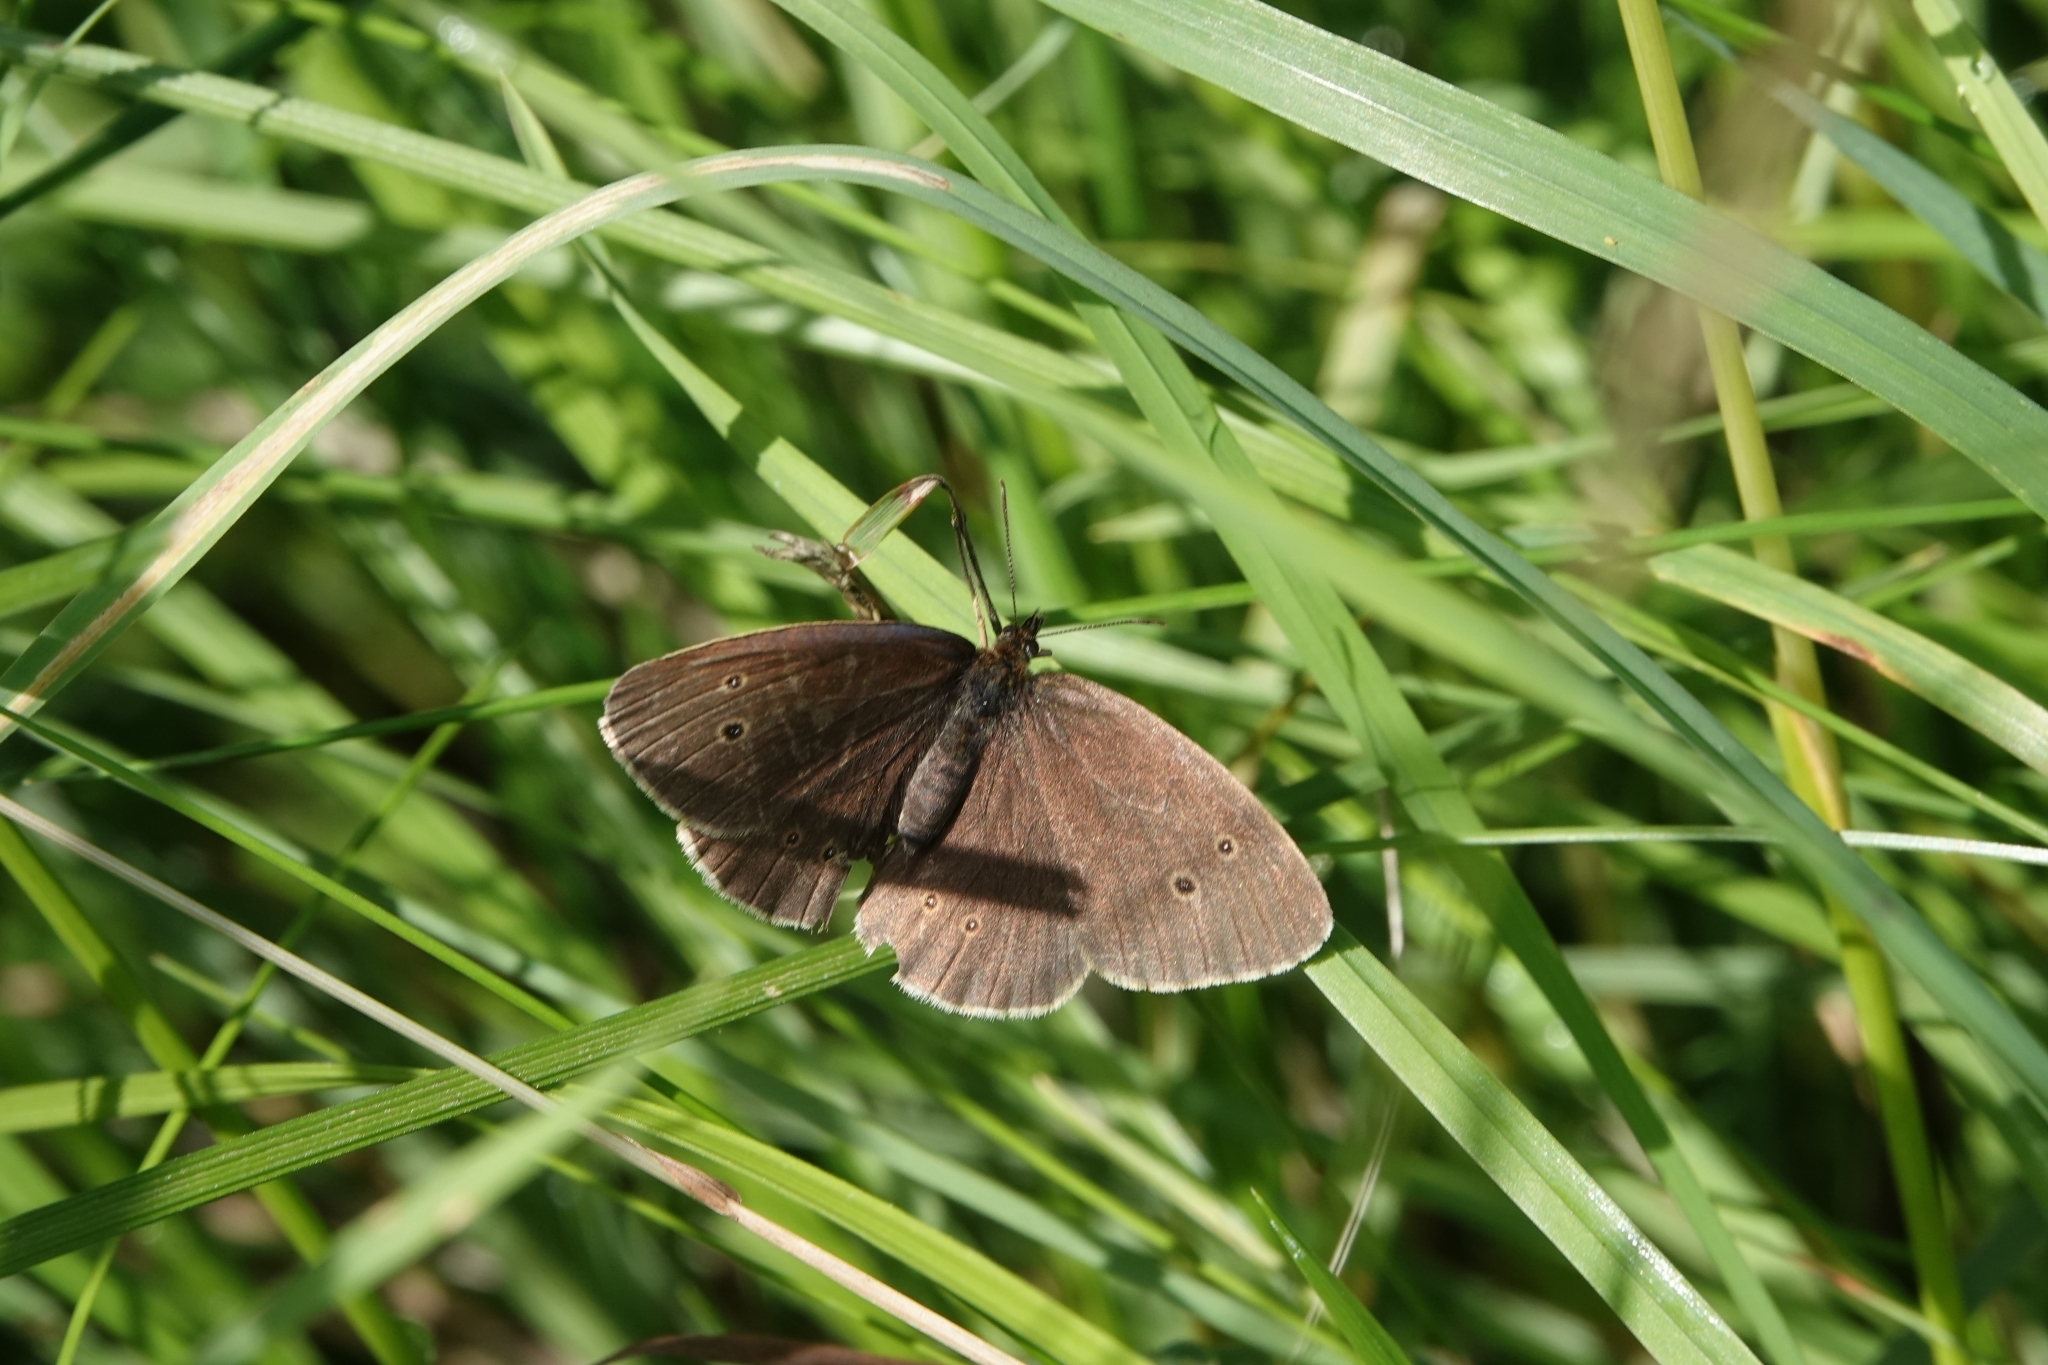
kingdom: Animalia
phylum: Arthropoda
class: Insecta
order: Lepidoptera
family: Nymphalidae
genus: Aphantopus
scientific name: Aphantopus hyperantus
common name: Ringlet
